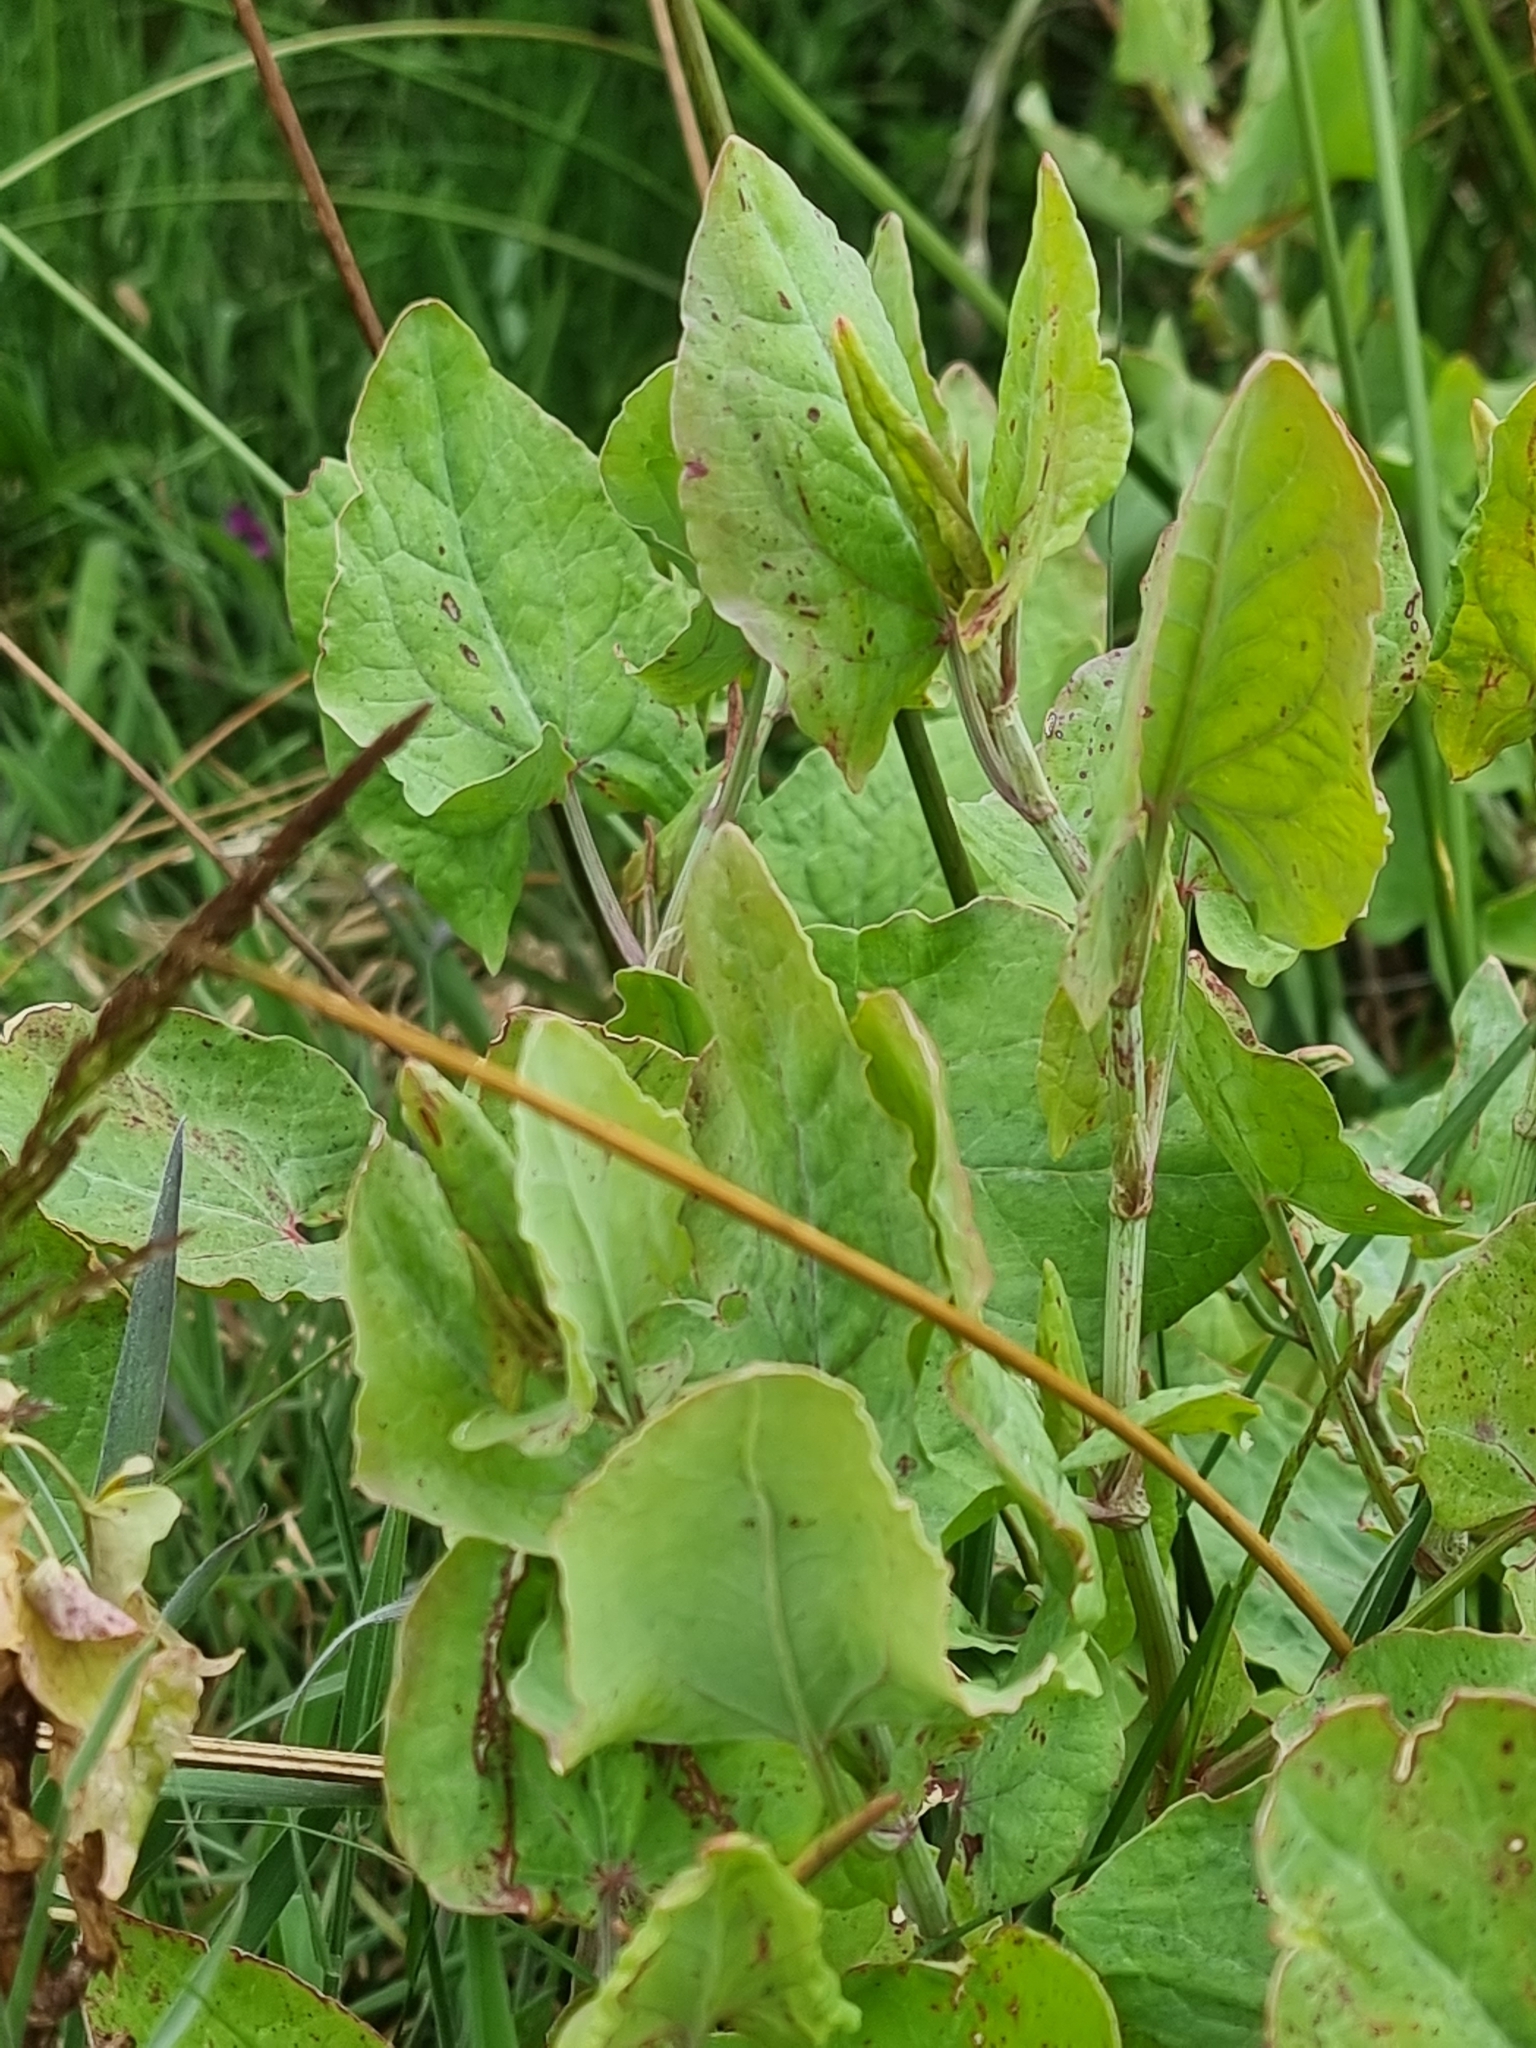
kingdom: Plantae
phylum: Tracheophyta
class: Magnoliopsida
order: Caryophyllales
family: Polygonaceae
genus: Rumex
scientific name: Rumex maderensis
